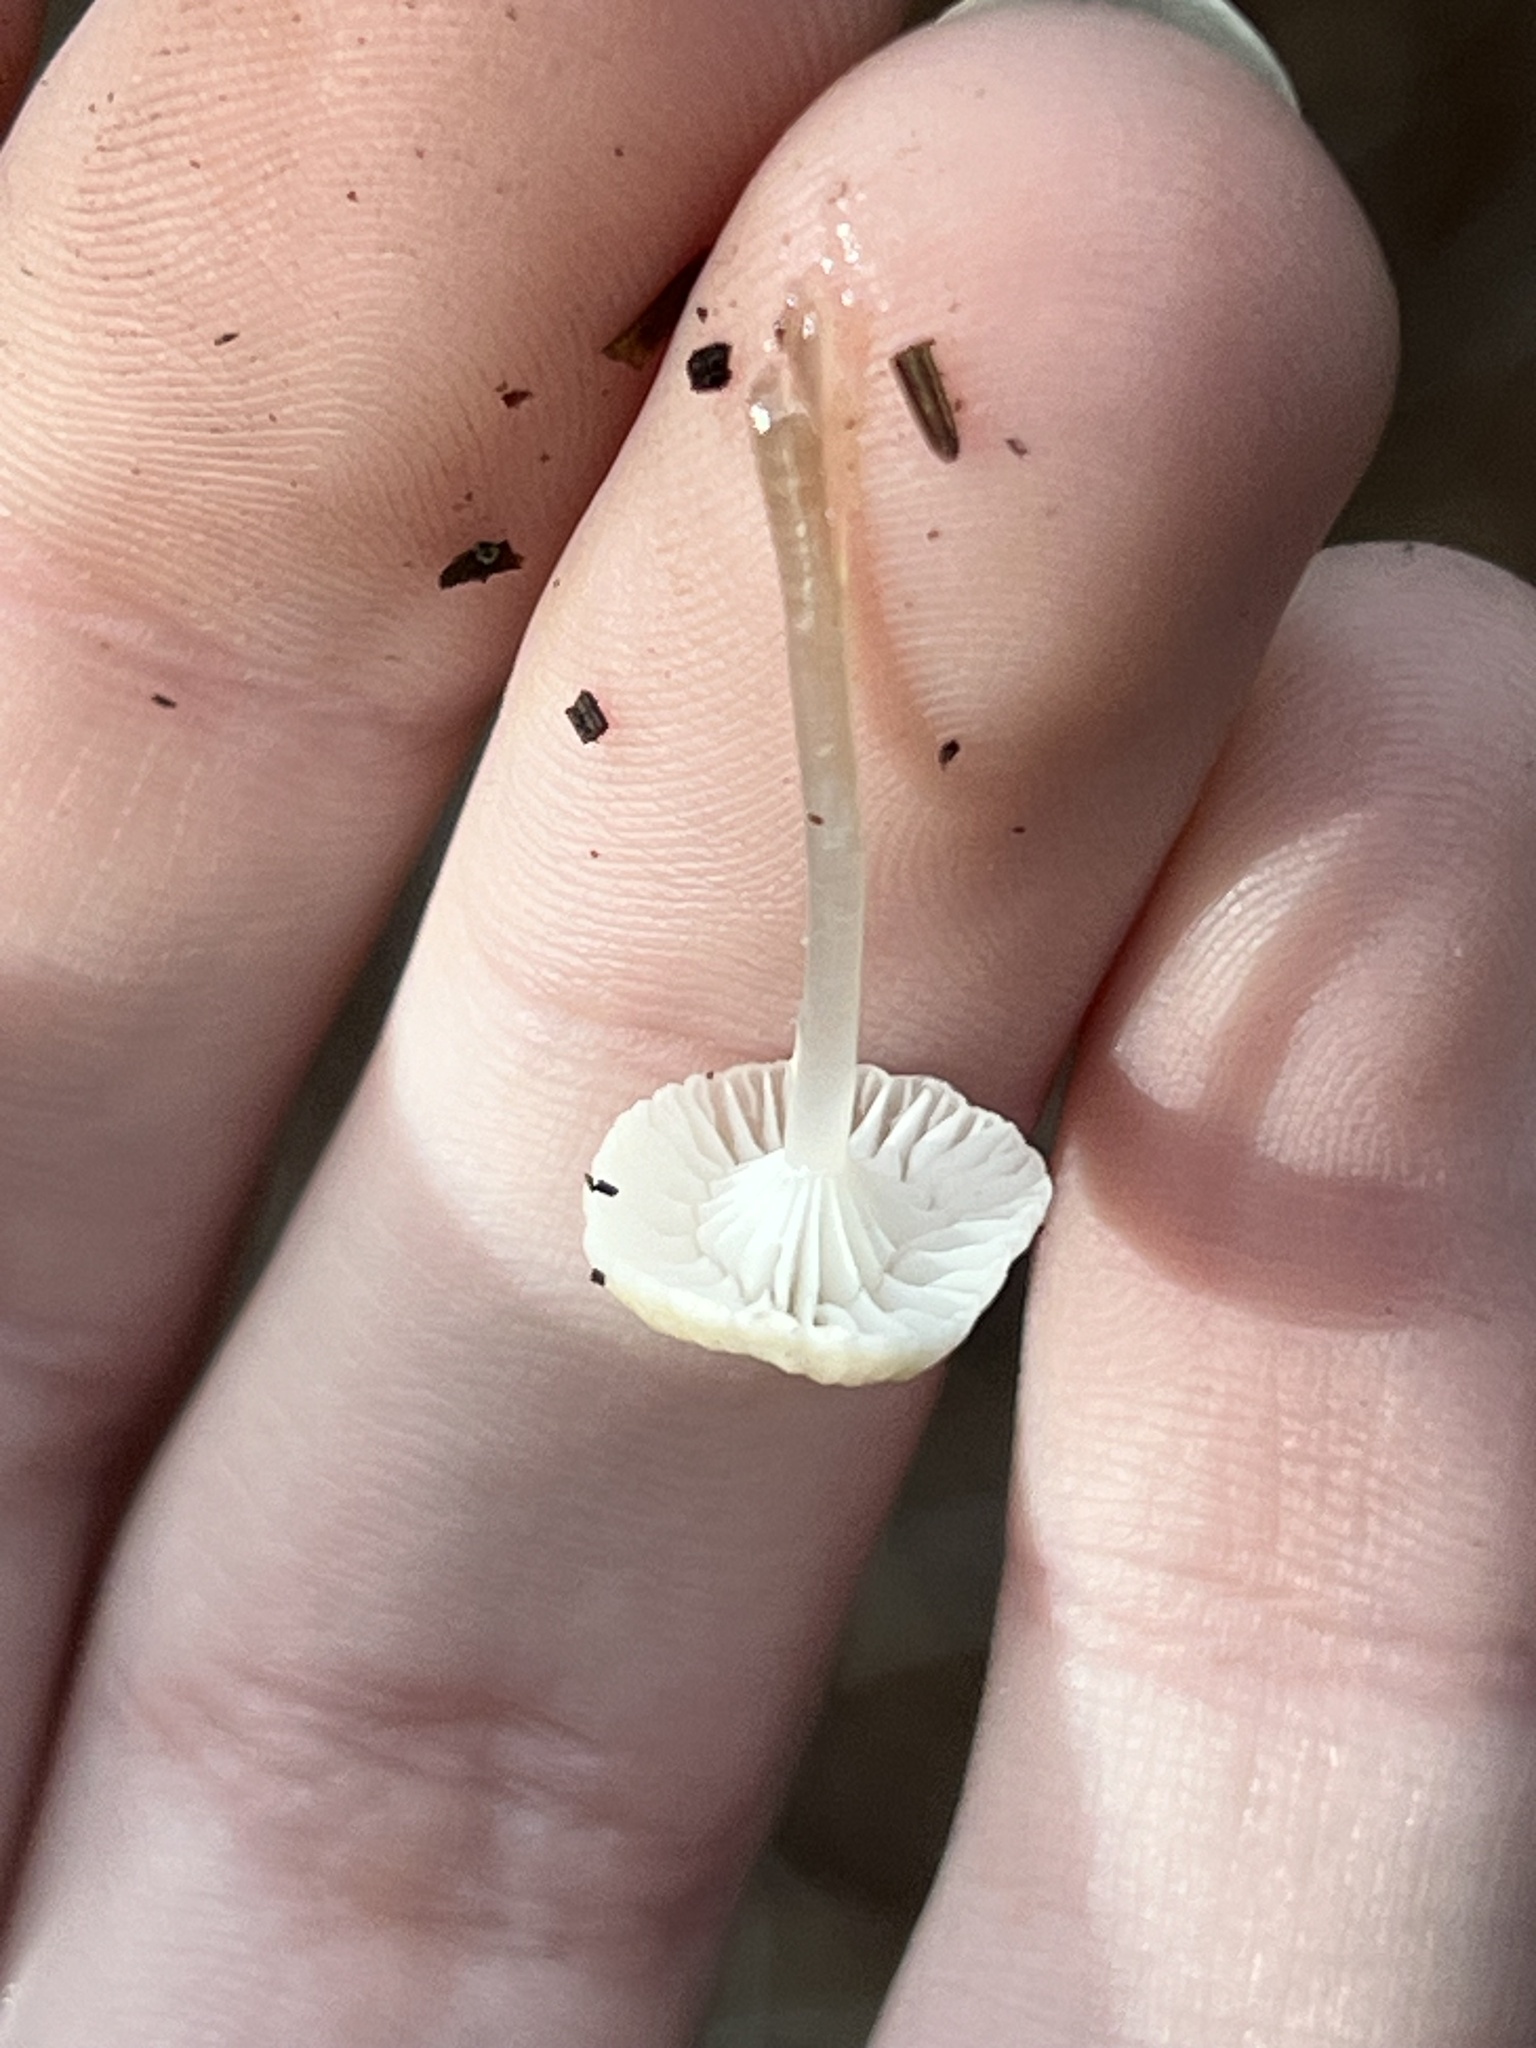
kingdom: Fungi
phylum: Basidiomycota
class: Agaricomycetes
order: Agaricales
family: Mycenaceae
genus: Roridomyces
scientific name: Roridomyces roridus
